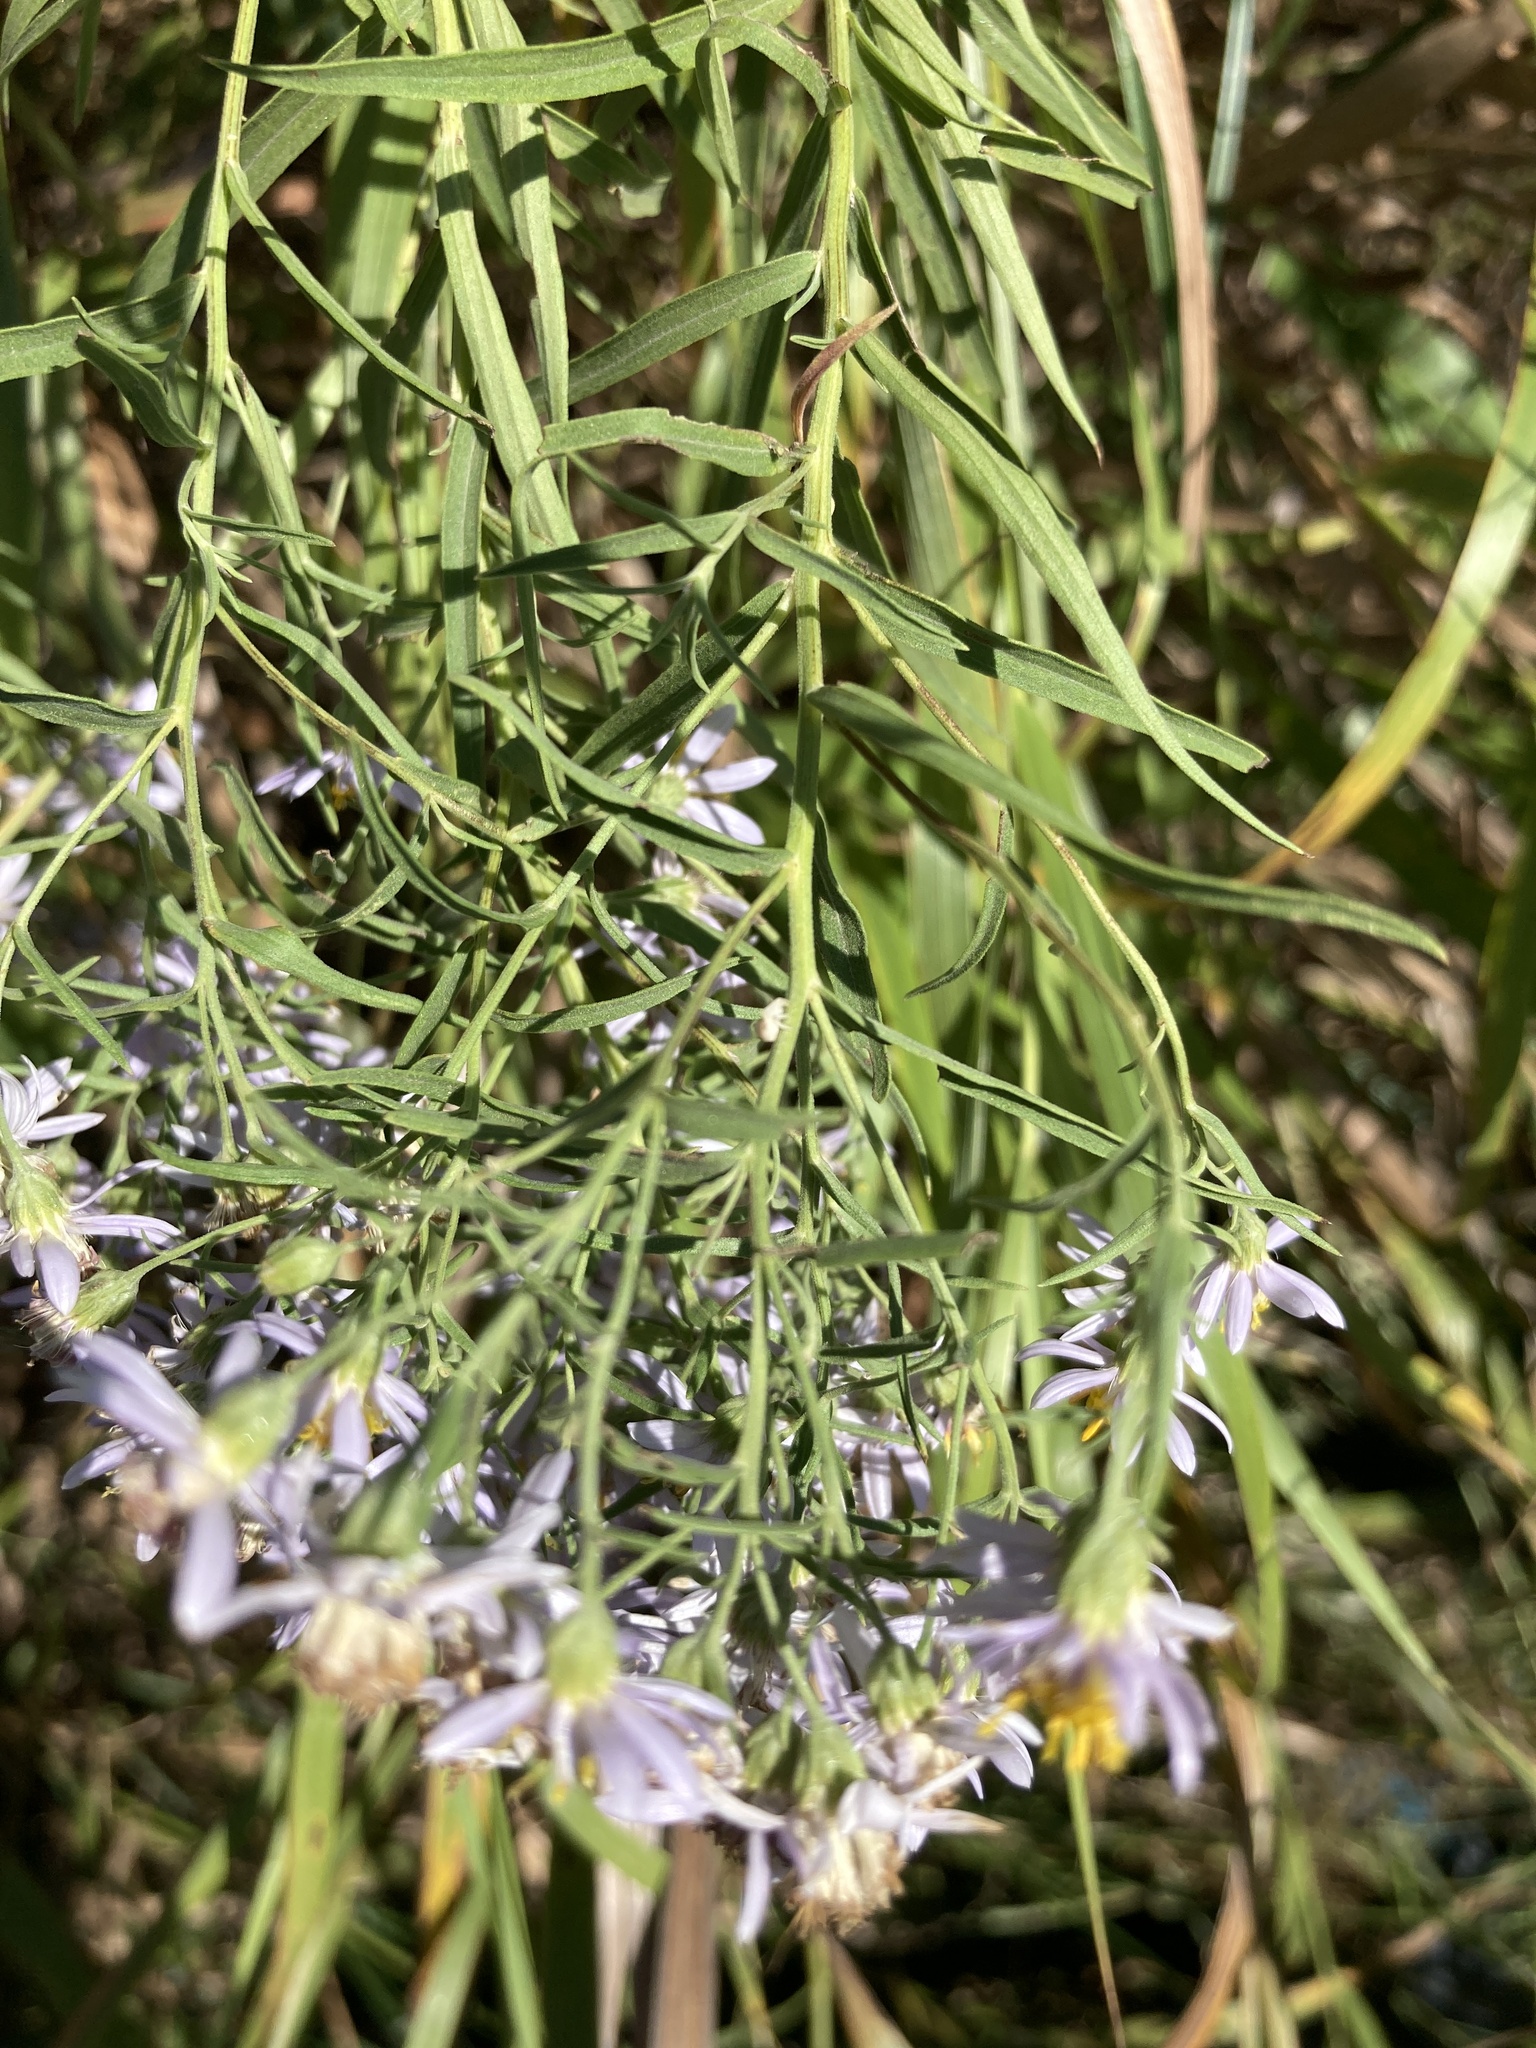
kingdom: Plantae
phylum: Tracheophyta
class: Magnoliopsida
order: Asterales
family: Asteraceae
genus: Galatella
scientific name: Galatella sedifolia
